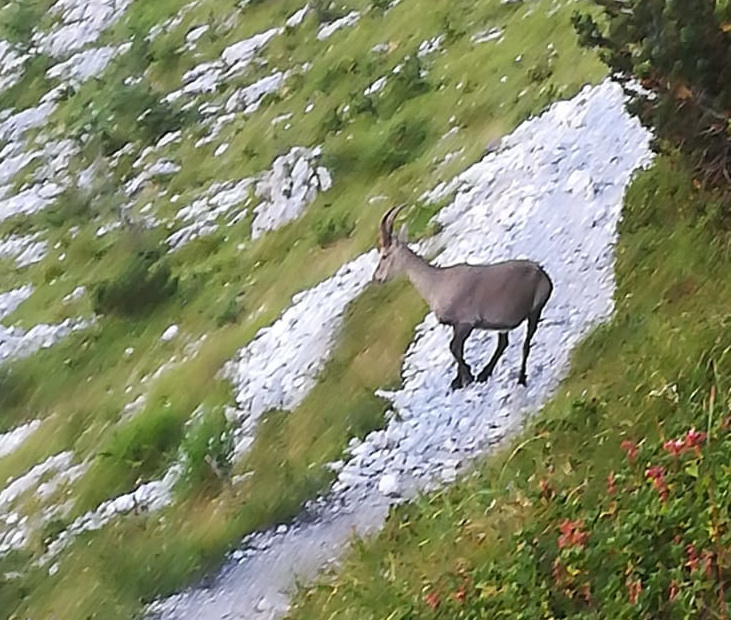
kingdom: Animalia
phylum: Chordata
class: Mammalia
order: Artiodactyla
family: Bovidae
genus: Capra
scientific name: Capra ibex
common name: Alpine ibex
